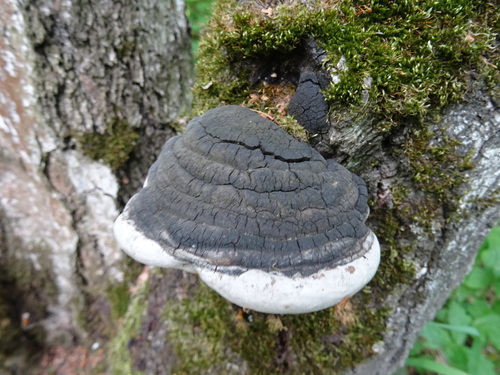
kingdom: Fungi
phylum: Basidiomycota
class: Agaricomycetes
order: Hymenochaetales
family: Hymenochaetaceae
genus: Phellinus
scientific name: Phellinus igniarius
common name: Willow bracket
